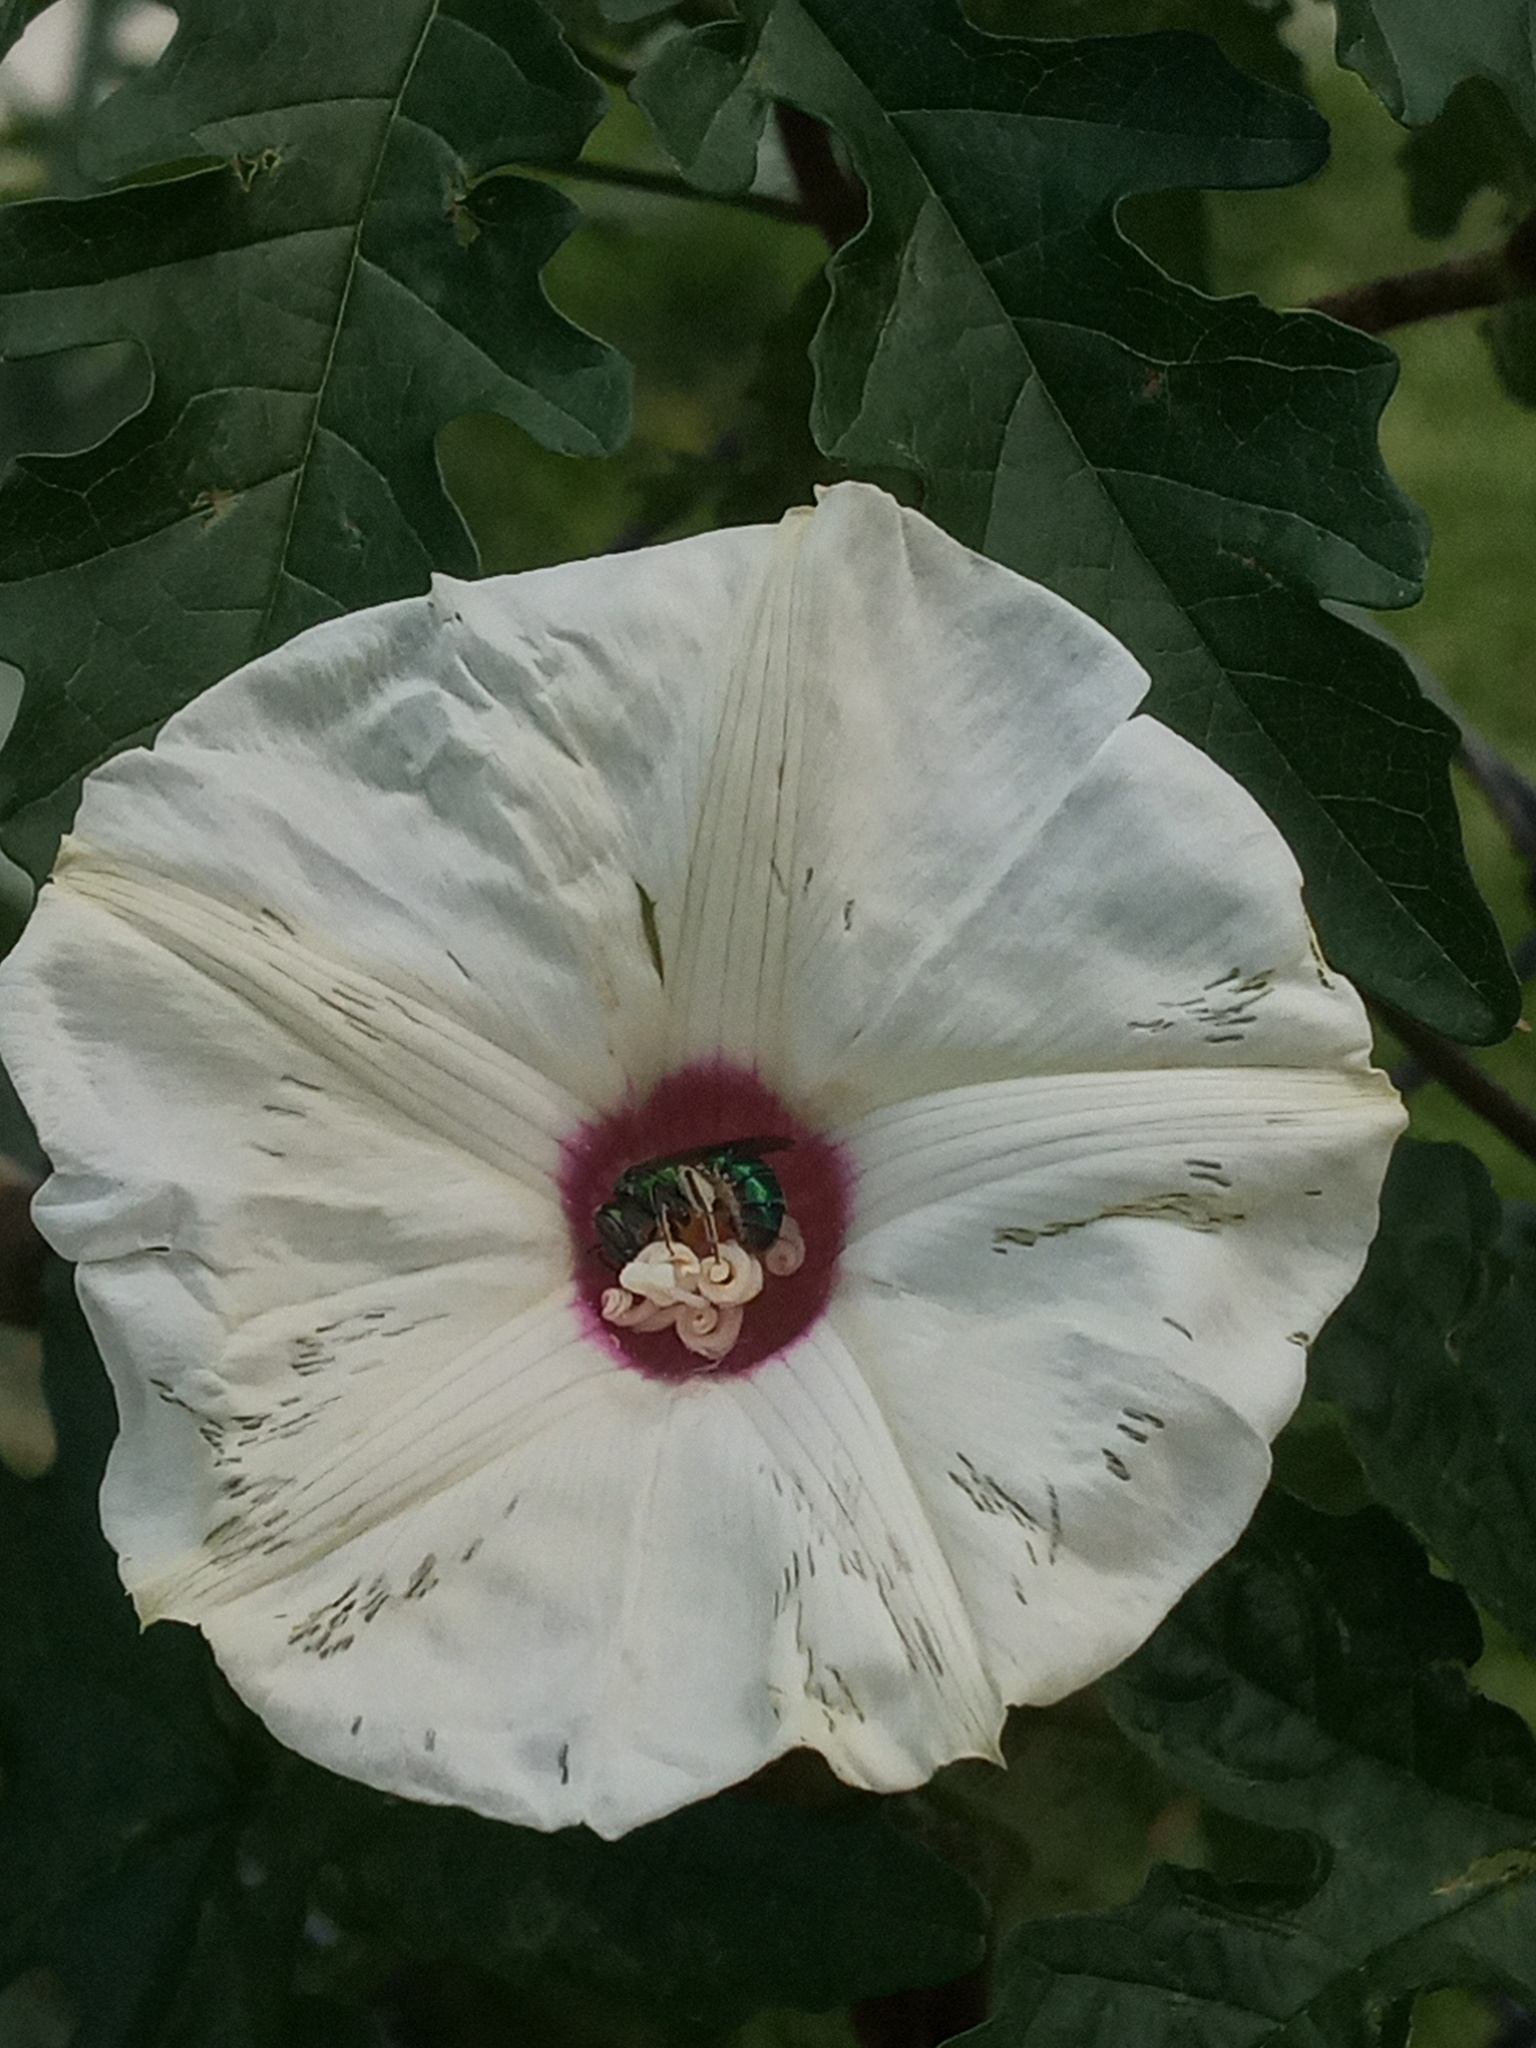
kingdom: Plantae
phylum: Tracheophyta
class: Magnoliopsida
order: Solanales
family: Convolvulaceae
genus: Distimake
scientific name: Distimake dissectus
